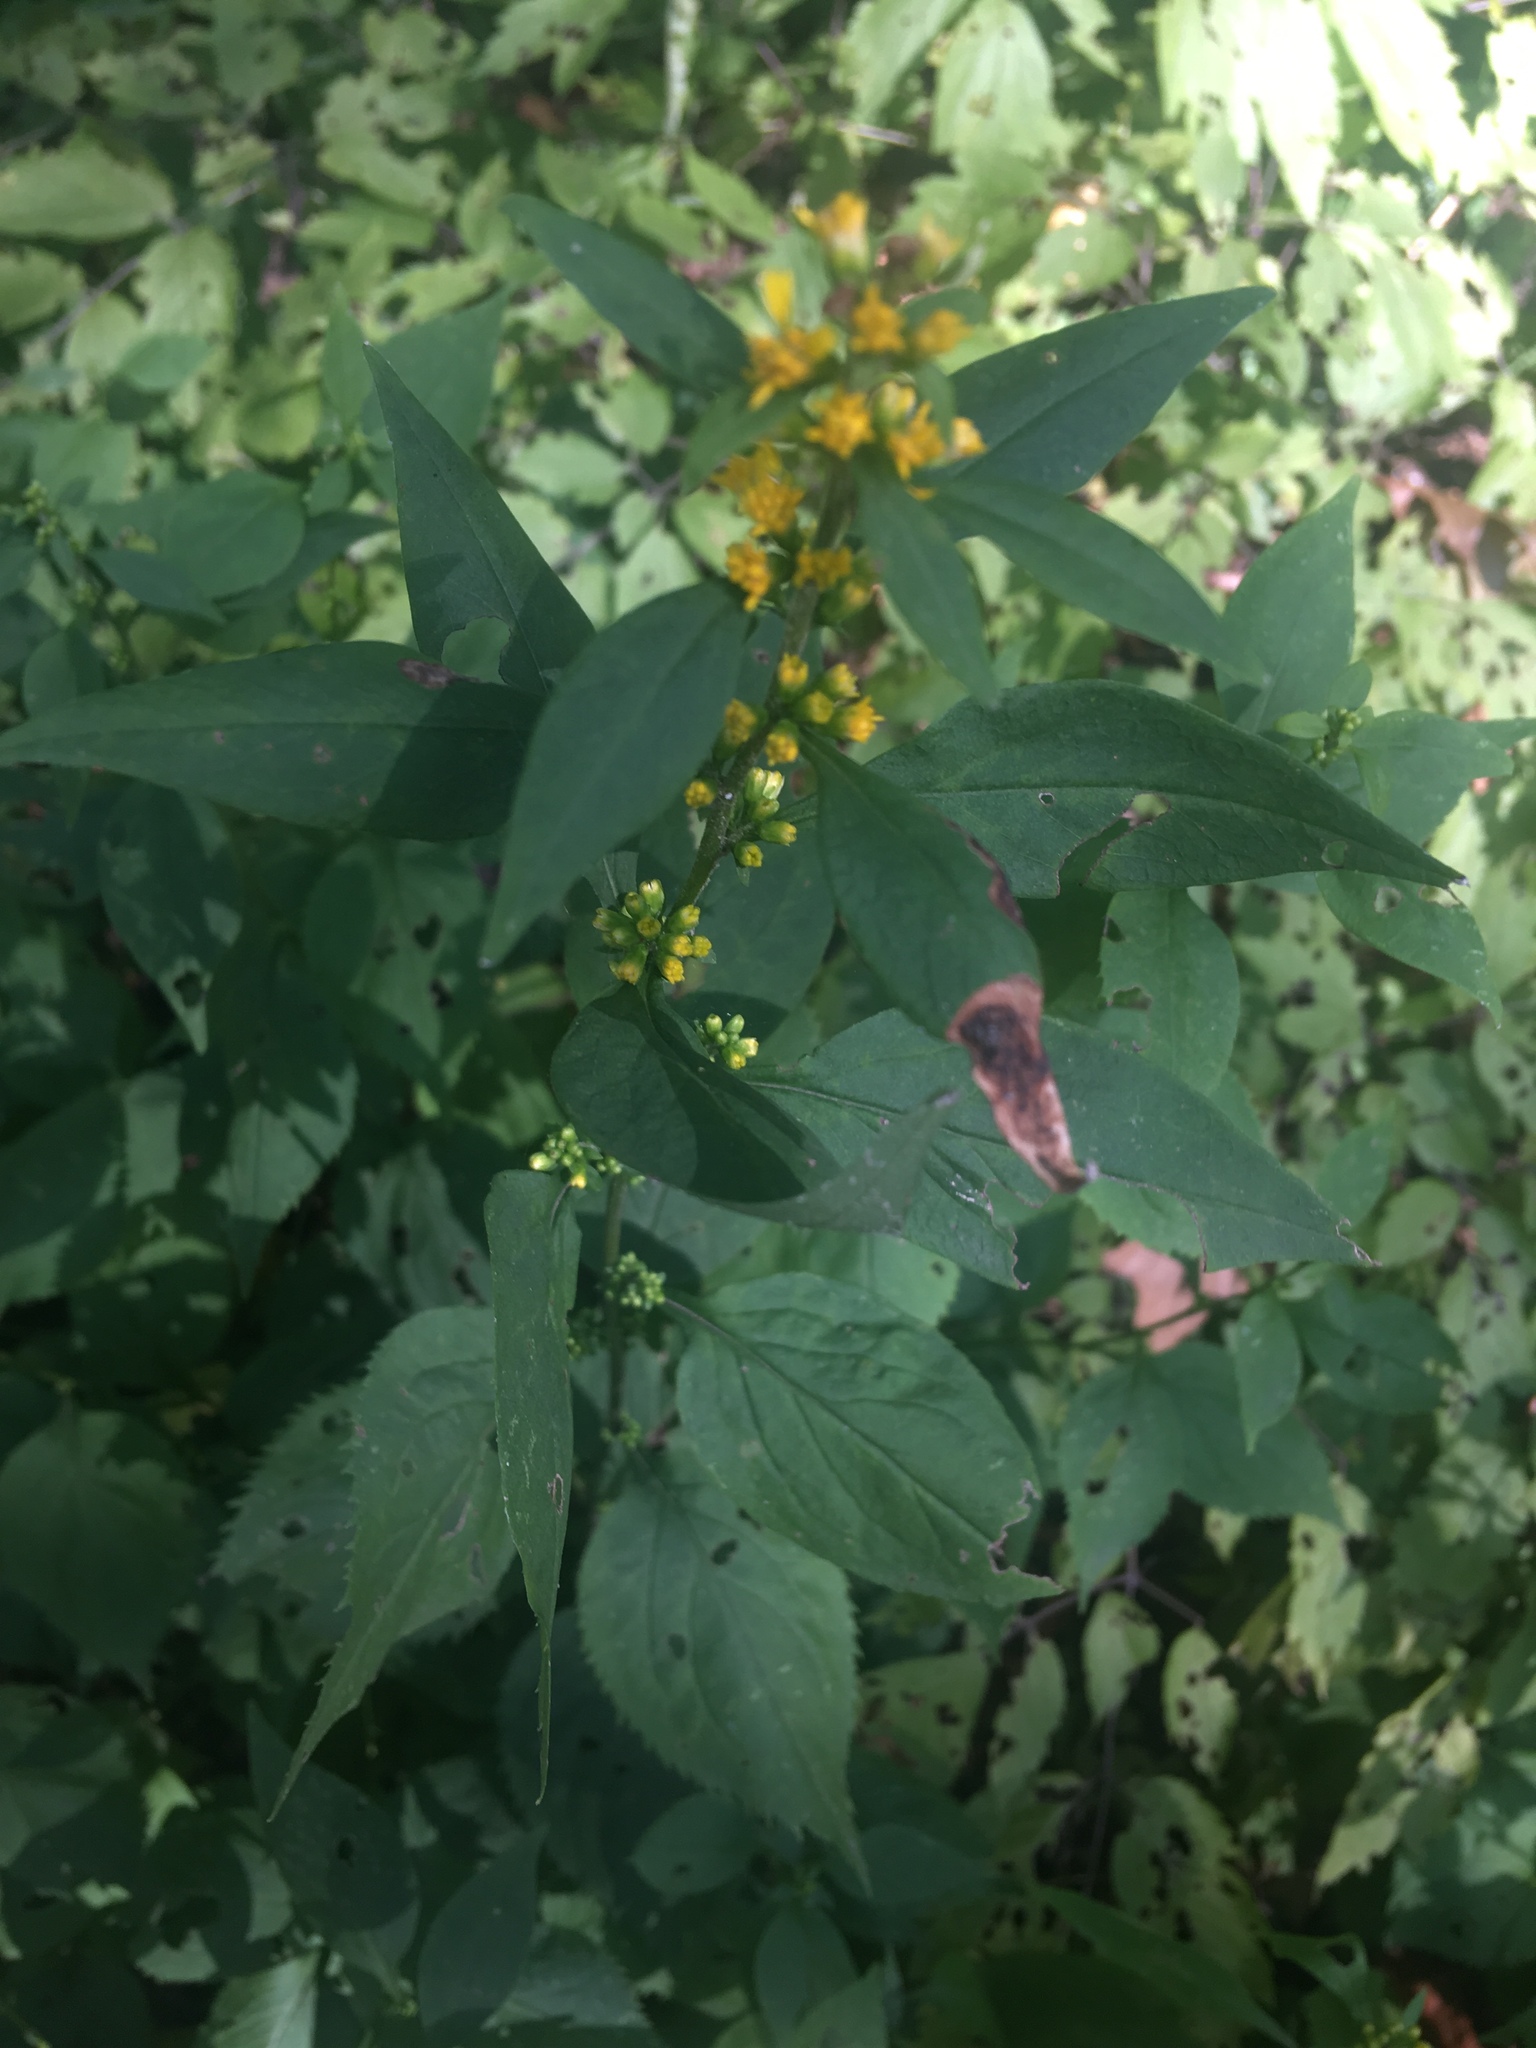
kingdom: Plantae
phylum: Tracheophyta
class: Magnoliopsida
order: Asterales
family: Asteraceae
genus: Solidago
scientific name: Solidago flexicaulis
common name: Zig-zag goldenrod
